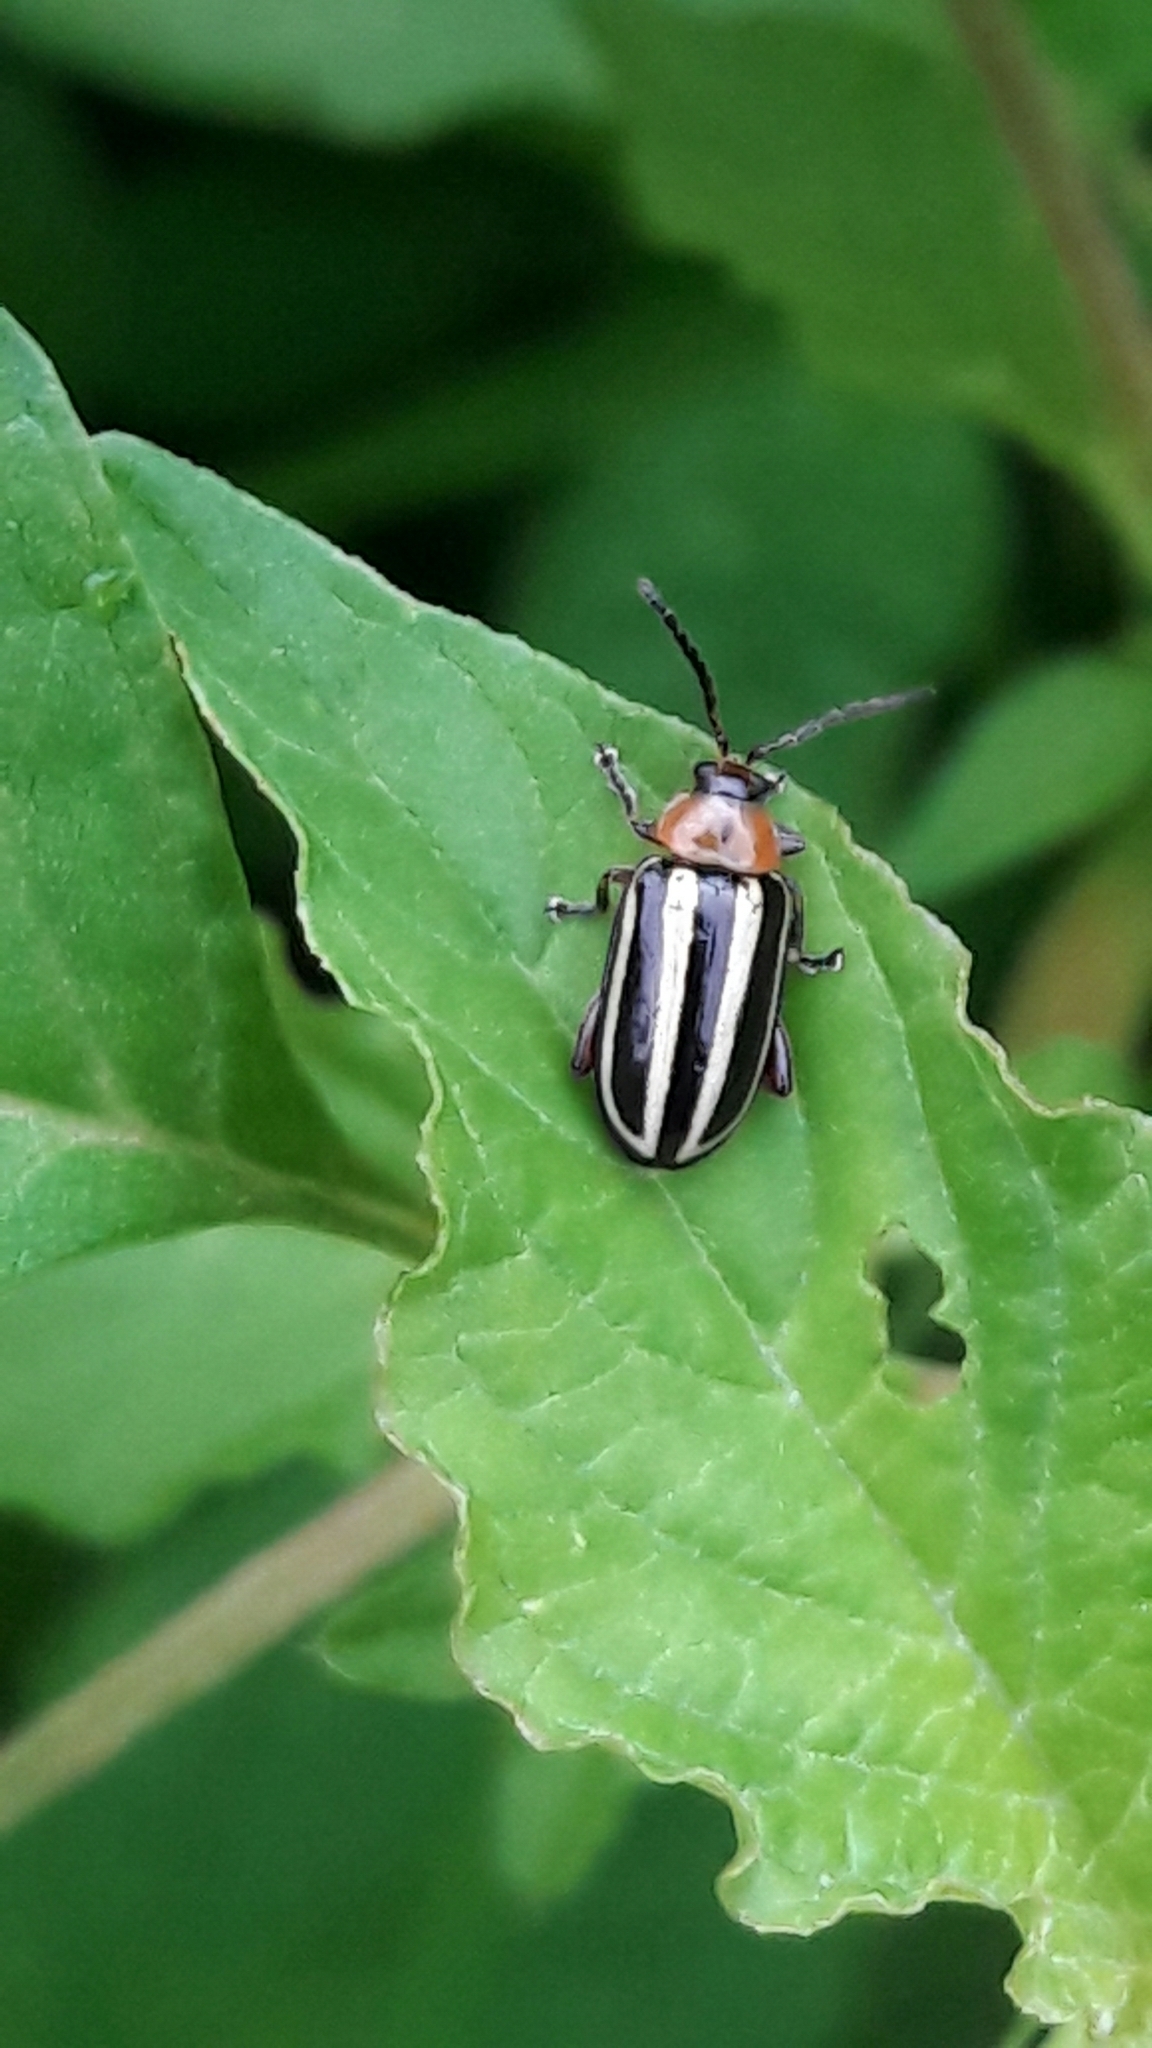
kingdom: Animalia
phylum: Arthropoda
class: Insecta
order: Coleoptera
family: Chrysomelidae
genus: Disonycha
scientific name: Disonycha glabrata
